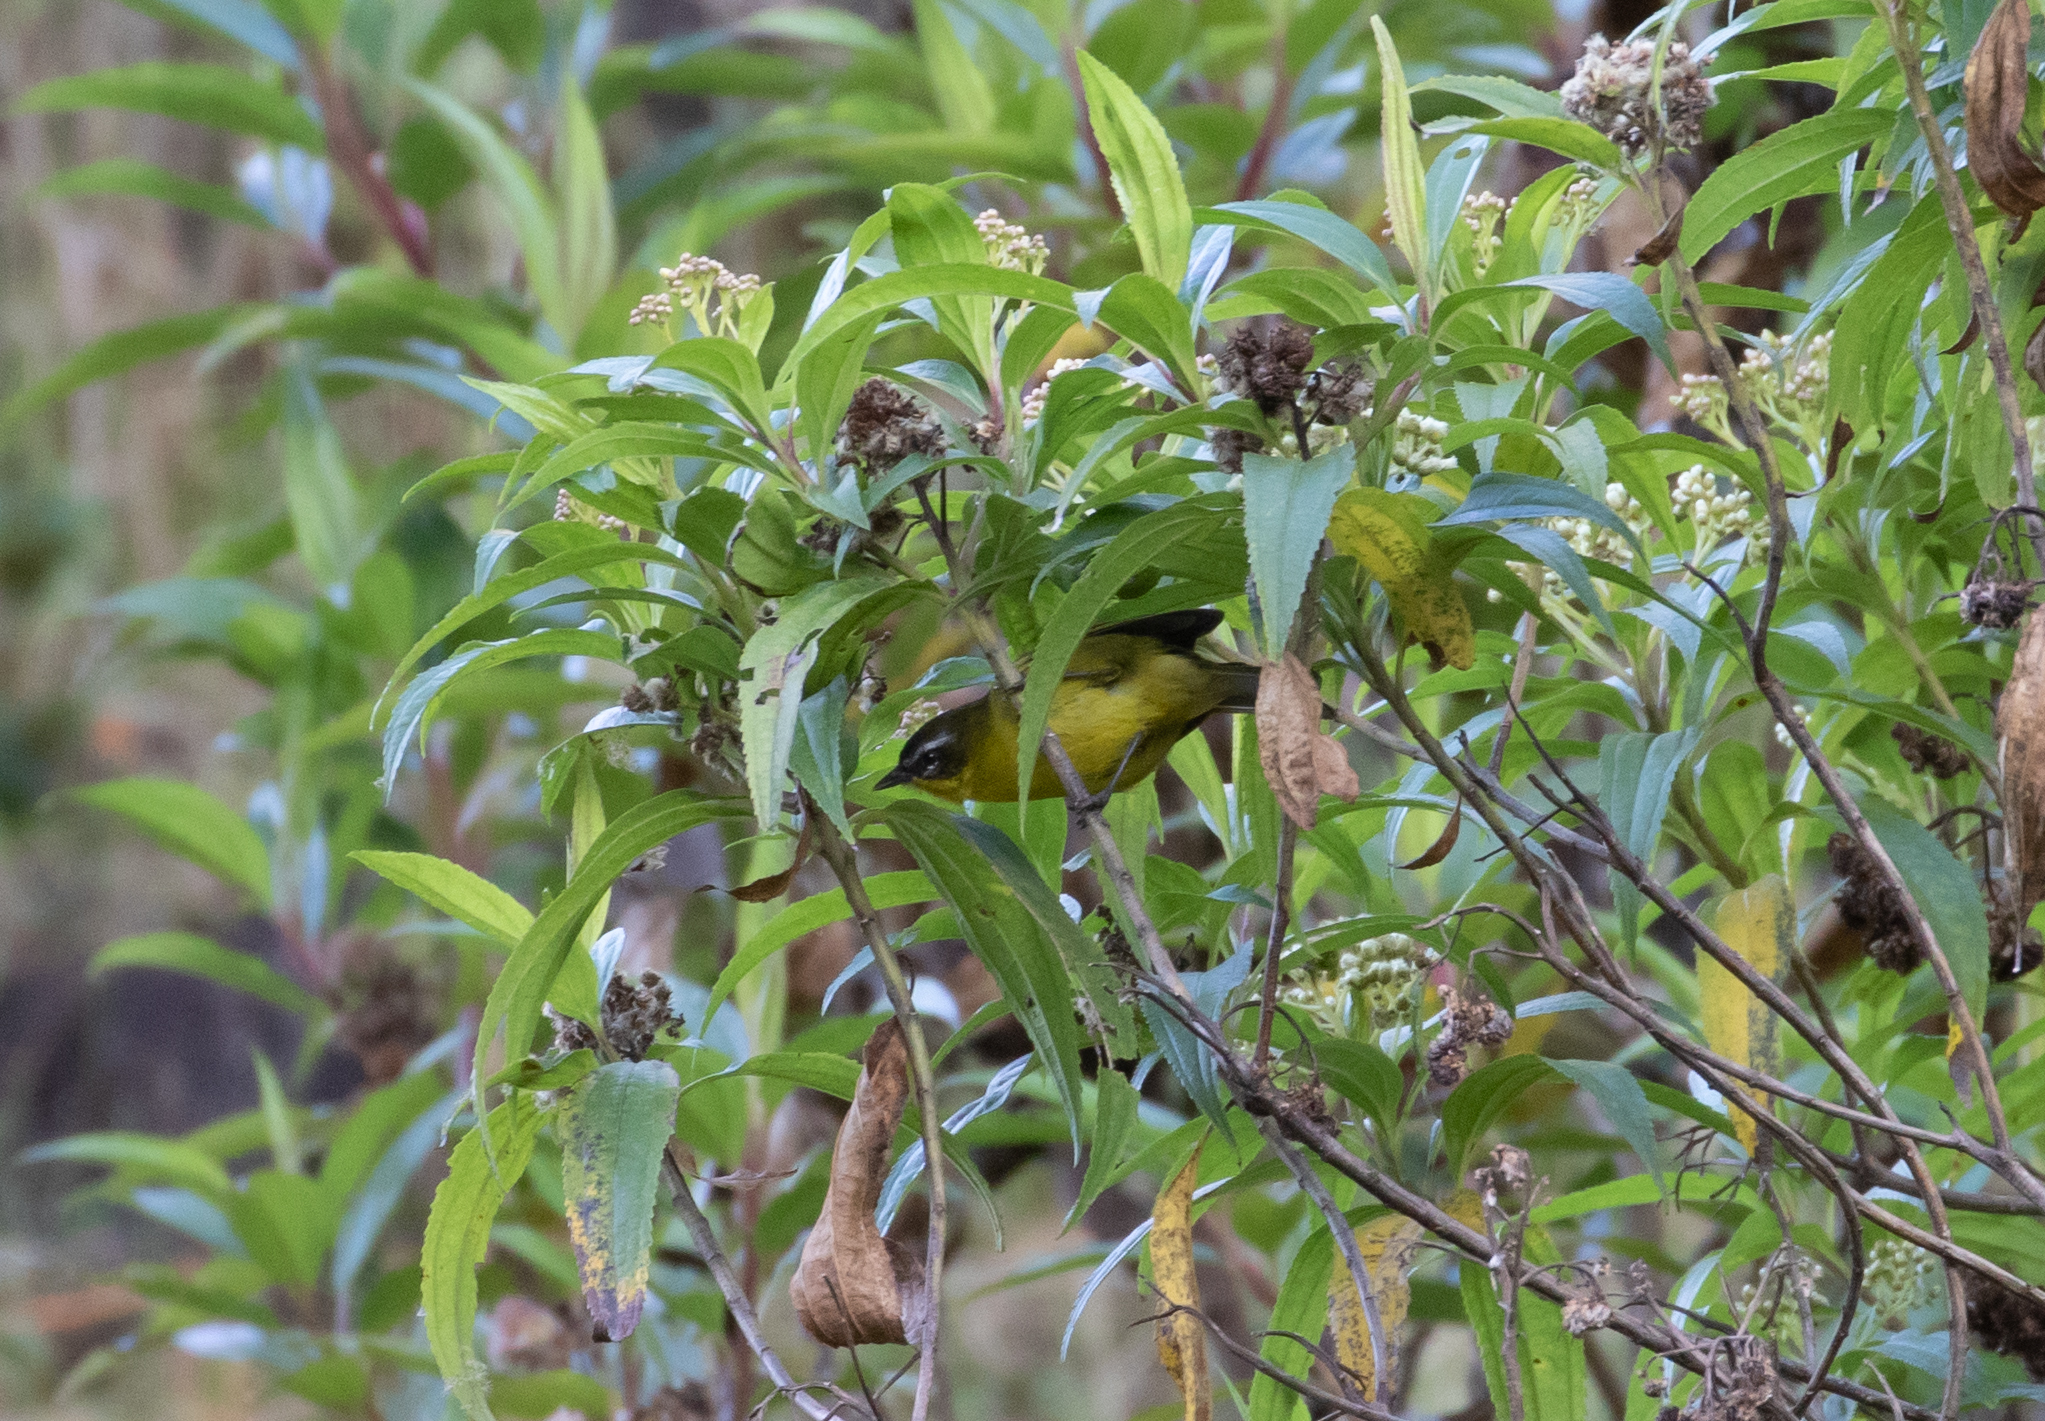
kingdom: Animalia
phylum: Chordata
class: Aves
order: Passeriformes
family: Thraupidae
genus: Thlypopsis
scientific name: Thlypopsis superciliaris
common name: Superciliaried hemispingus
